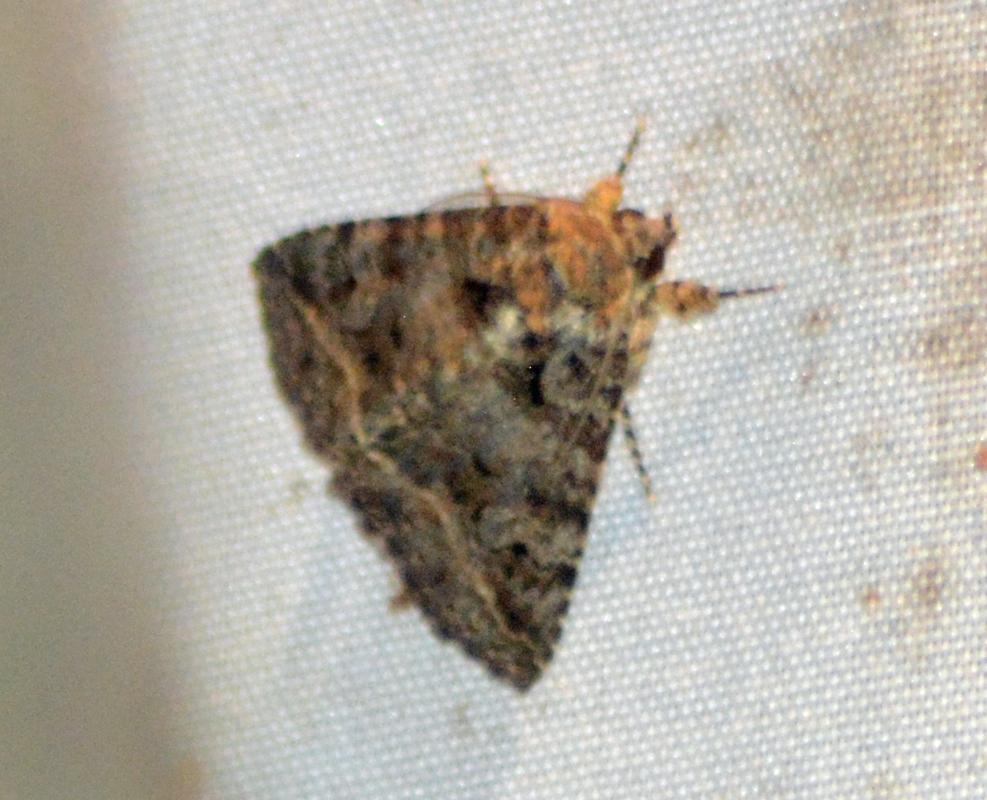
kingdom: Animalia
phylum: Arthropoda
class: Insecta
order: Lepidoptera
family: Erebidae
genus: Elousa
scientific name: Elousa mima
